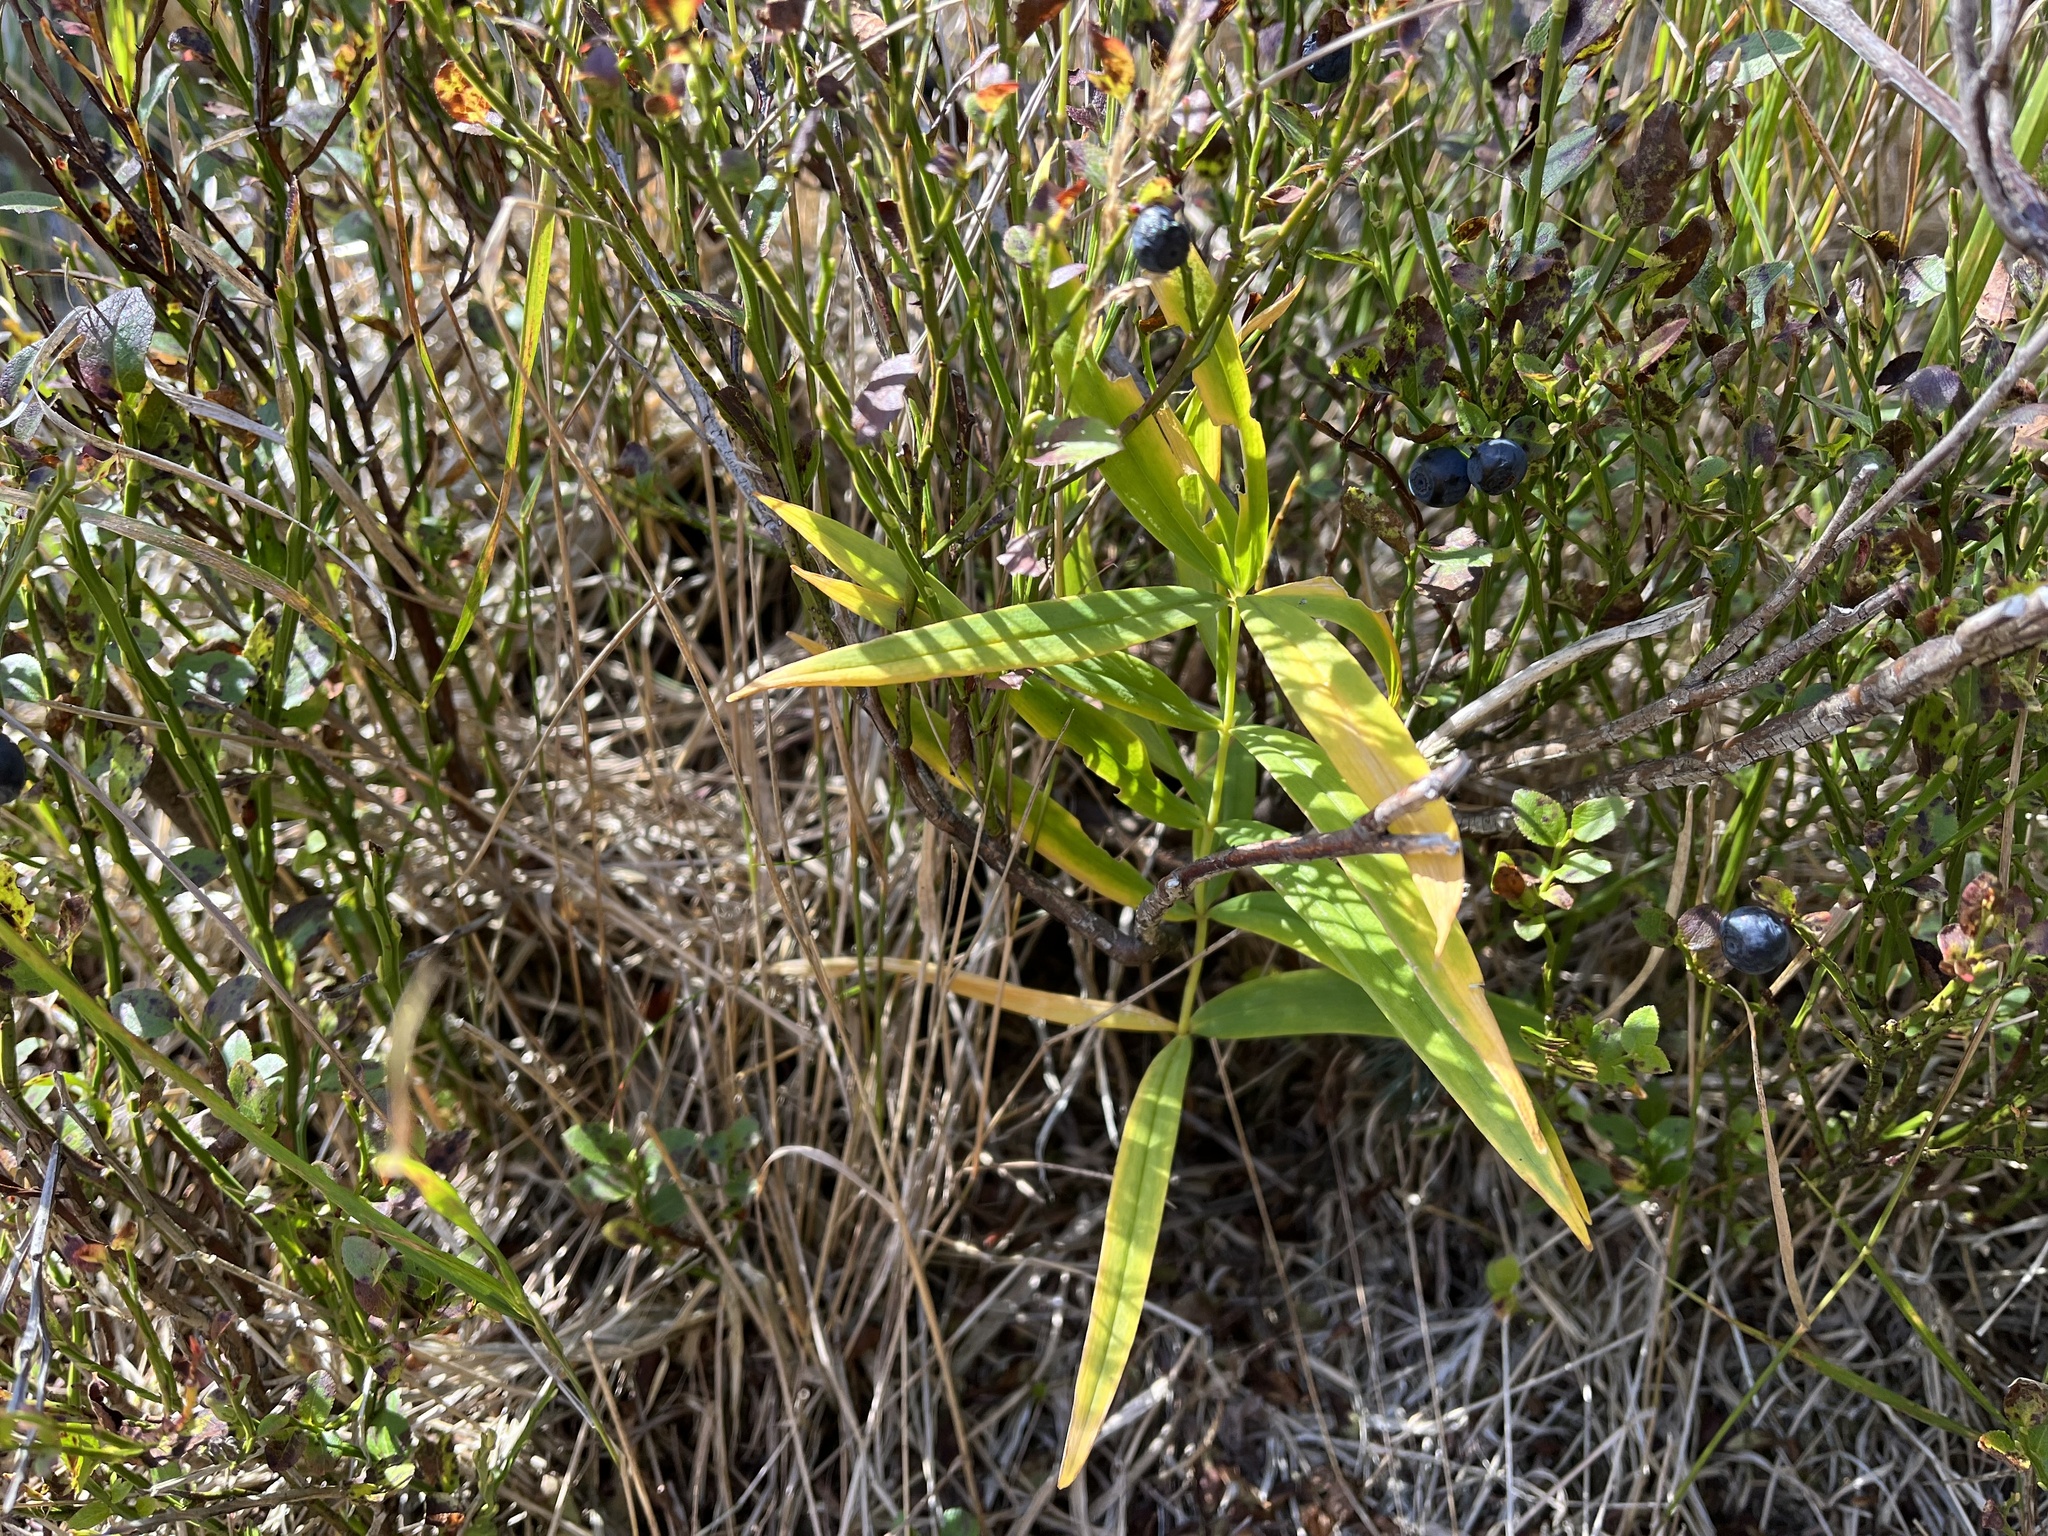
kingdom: Plantae
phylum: Tracheophyta
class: Liliopsida
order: Asparagales
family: Asparagaceae
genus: Polygonatum
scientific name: Polygonatum verticillatum
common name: Whorled solomon's-seal
